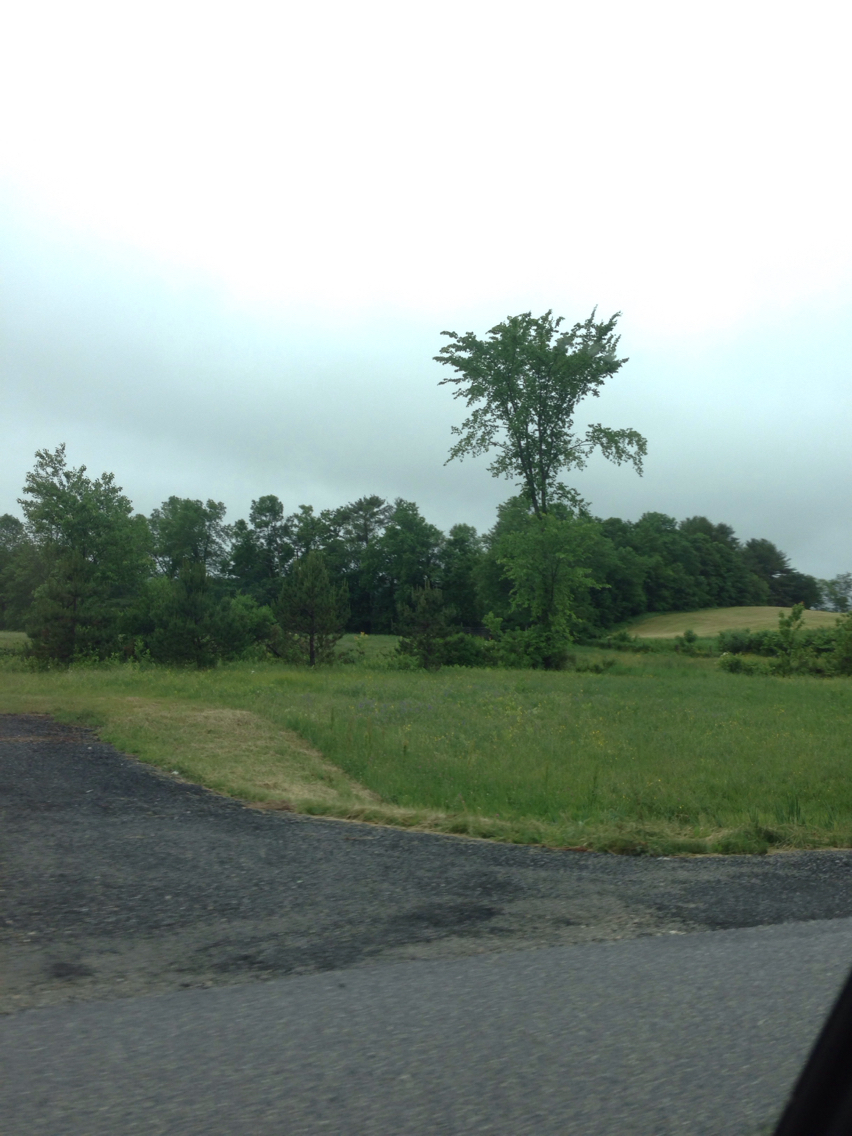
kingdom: Plantae
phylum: Tracheophyta
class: Magnoliopsida
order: Rosales
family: Ulmaceae
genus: Ulmus
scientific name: Ulmus americana
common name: American elm
